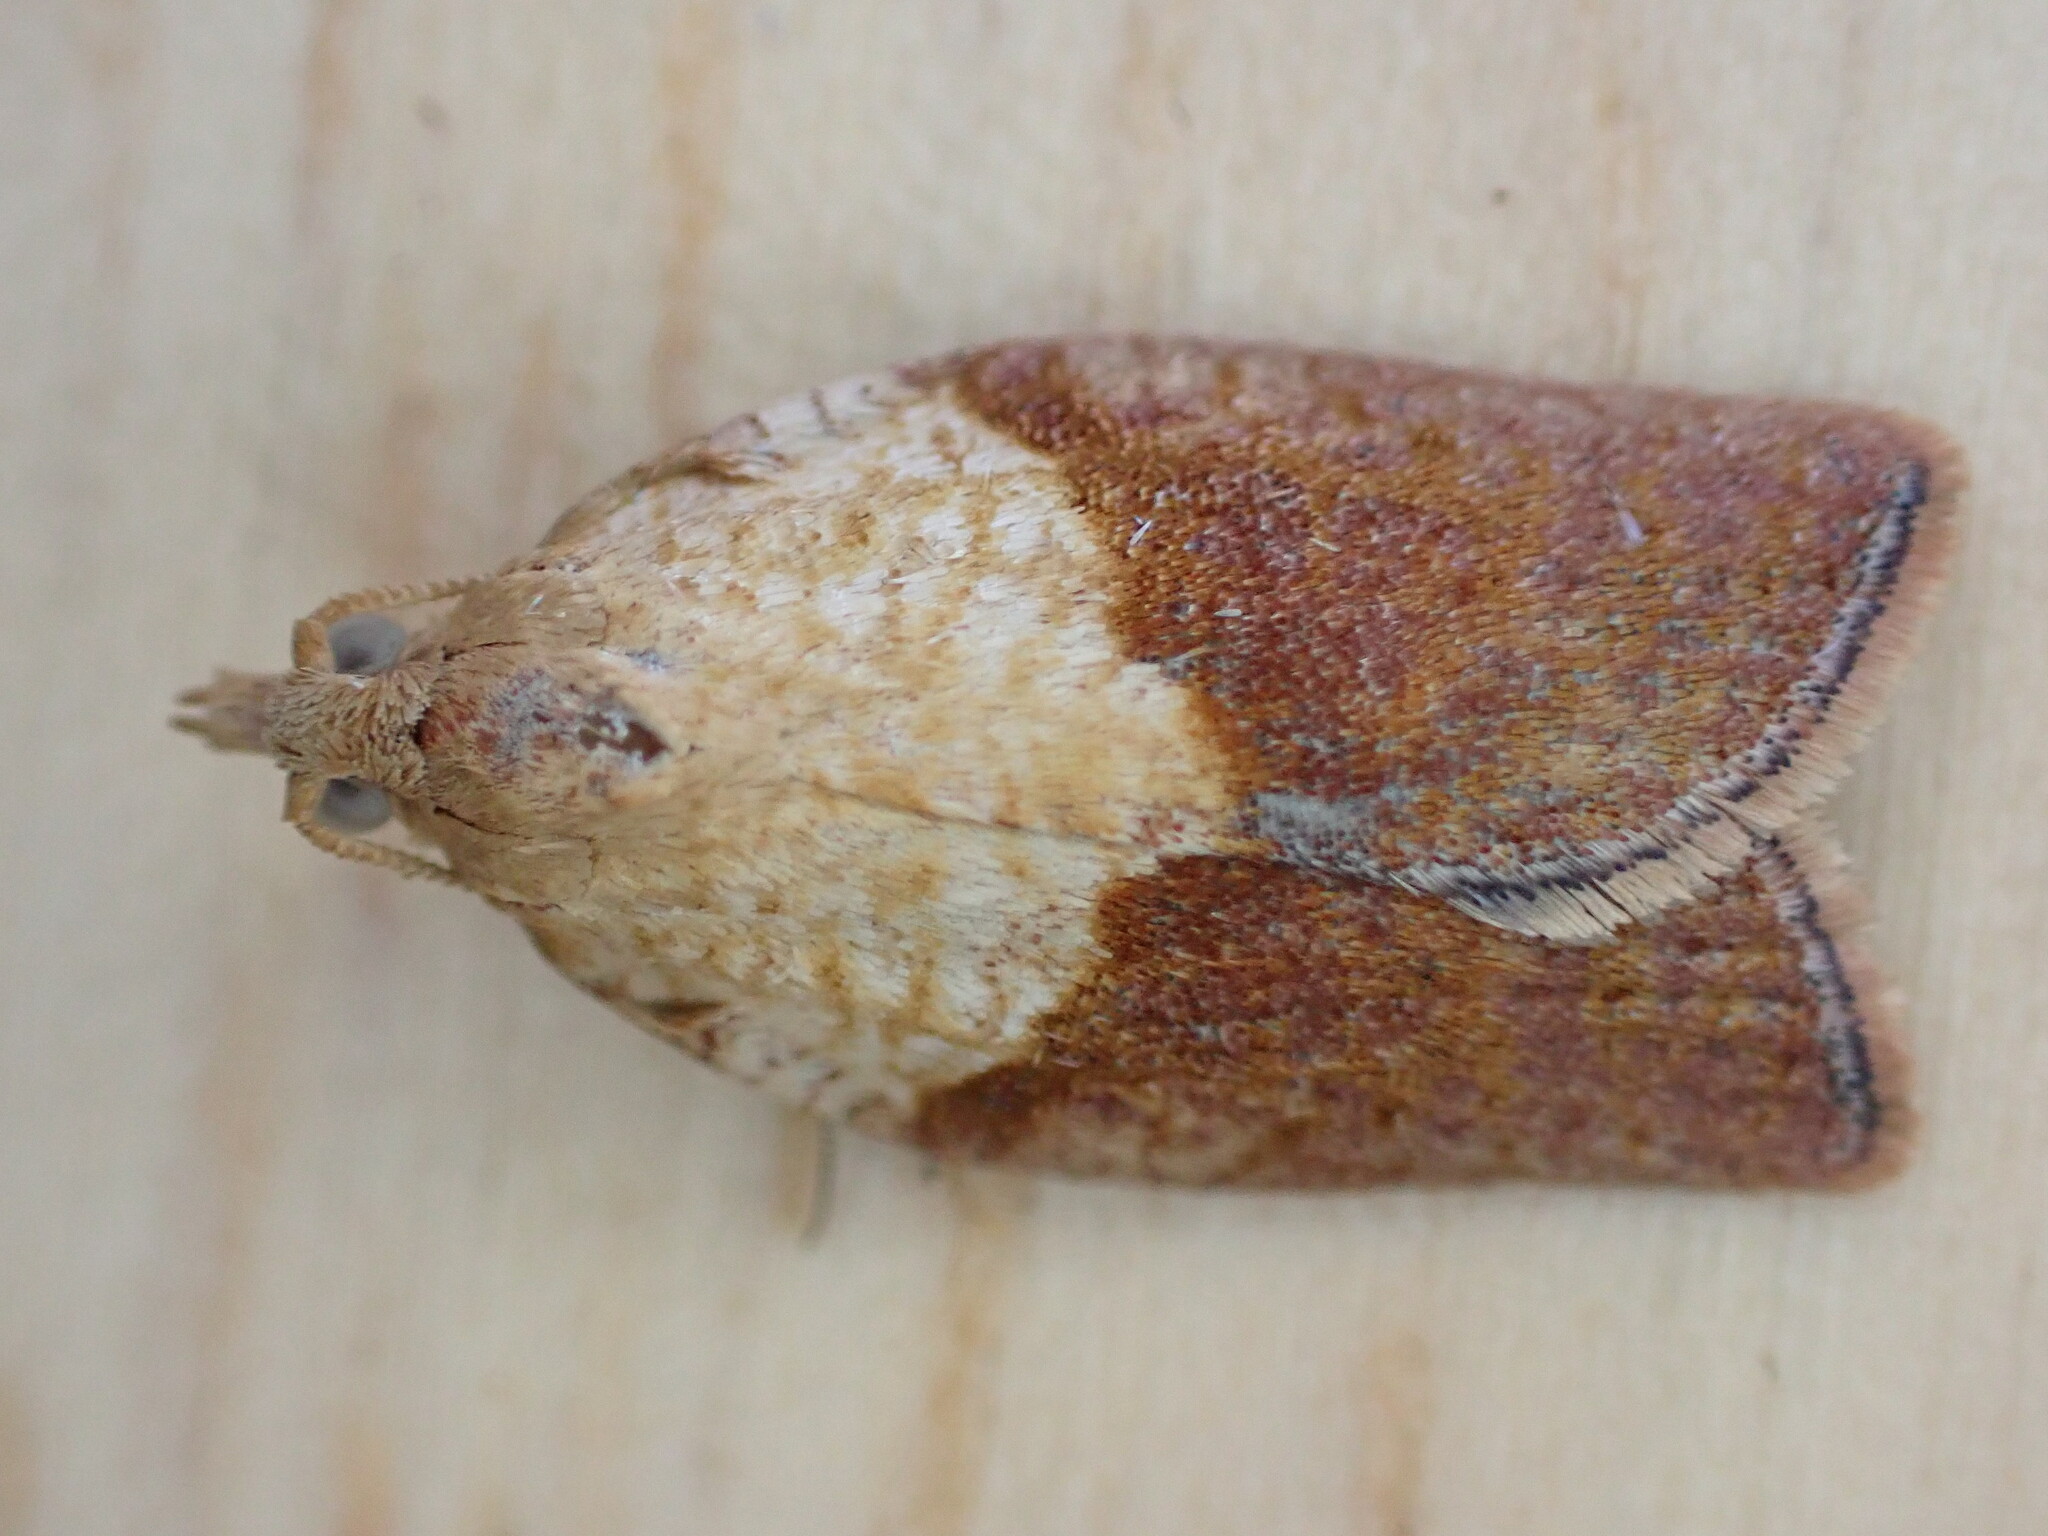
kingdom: Animalia
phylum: Arthropoda
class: Insecta
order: Lepidoptera
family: Tortricidae
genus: Epiphyas
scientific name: Epiphyas postvittana
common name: Light brown apple moth
